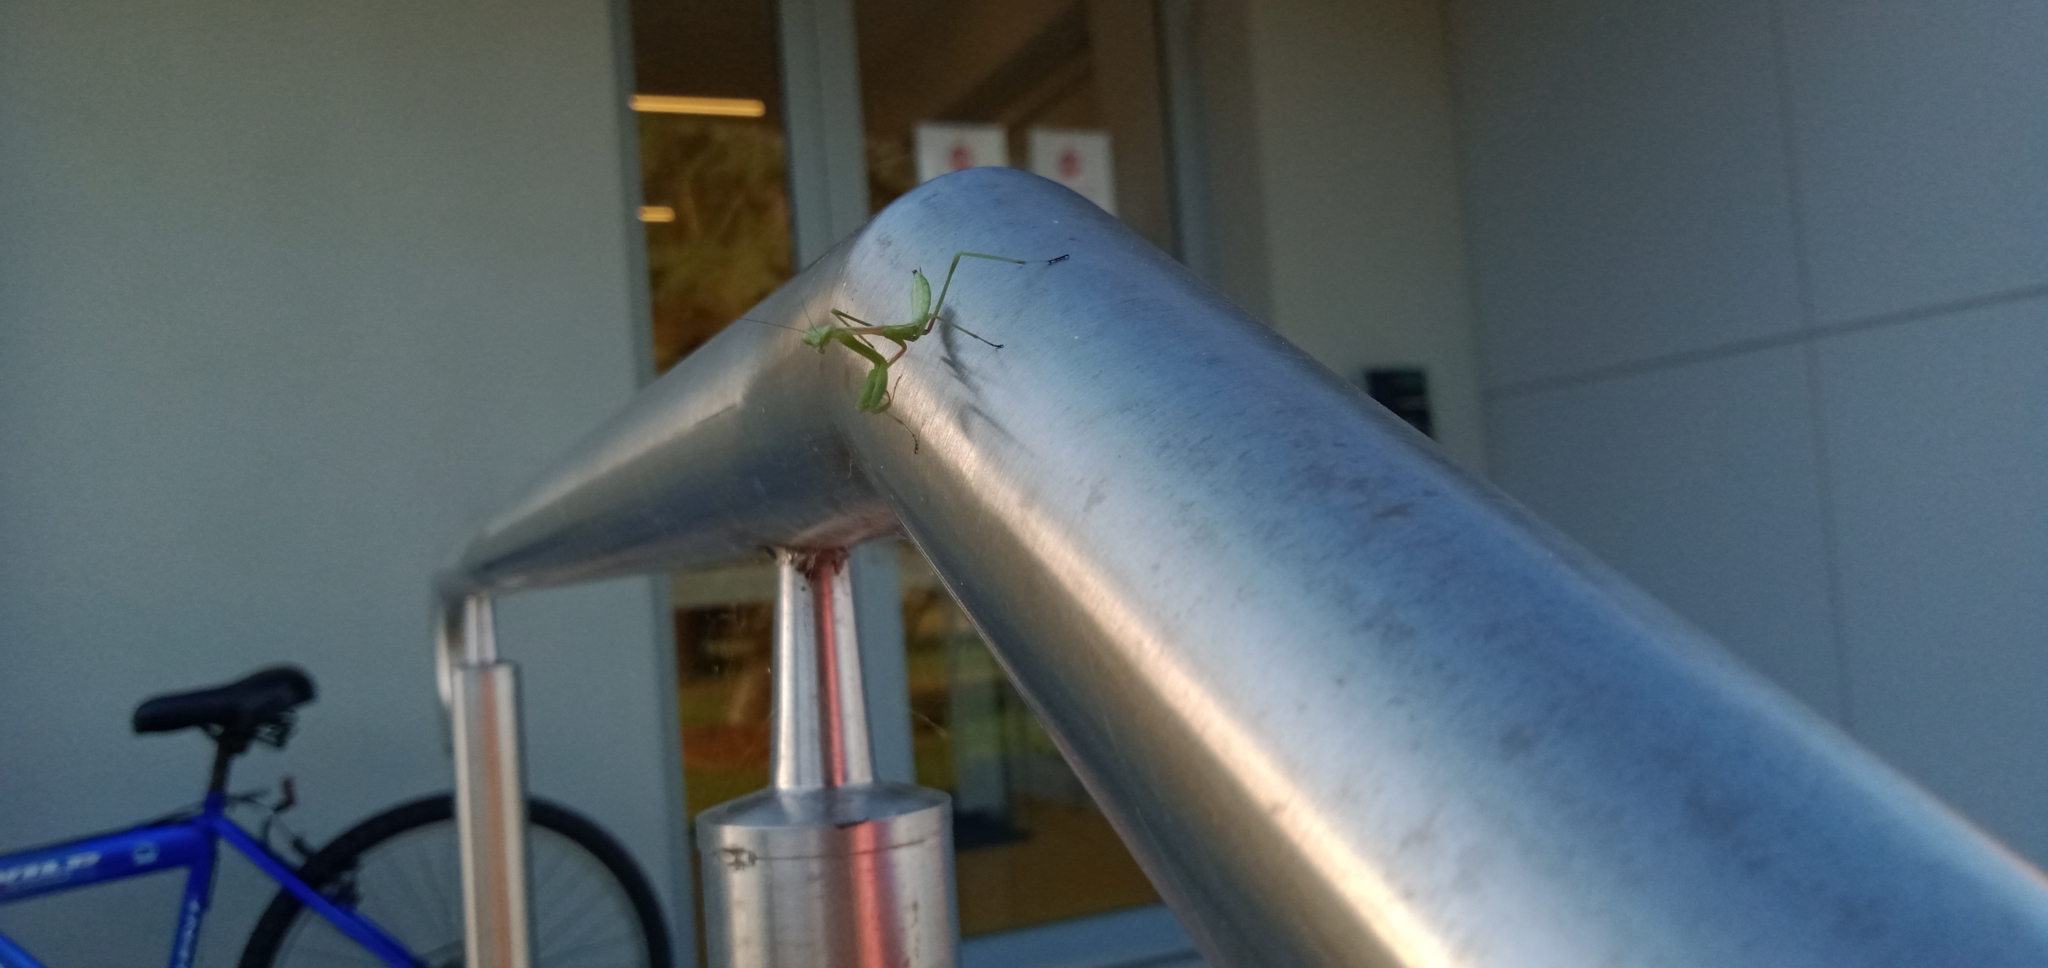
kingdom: Animalia
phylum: Arthropoda
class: Insecta
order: Mantodea
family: Mantidae
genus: Pseudomantis
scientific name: Pseudomantis albofimbriata
